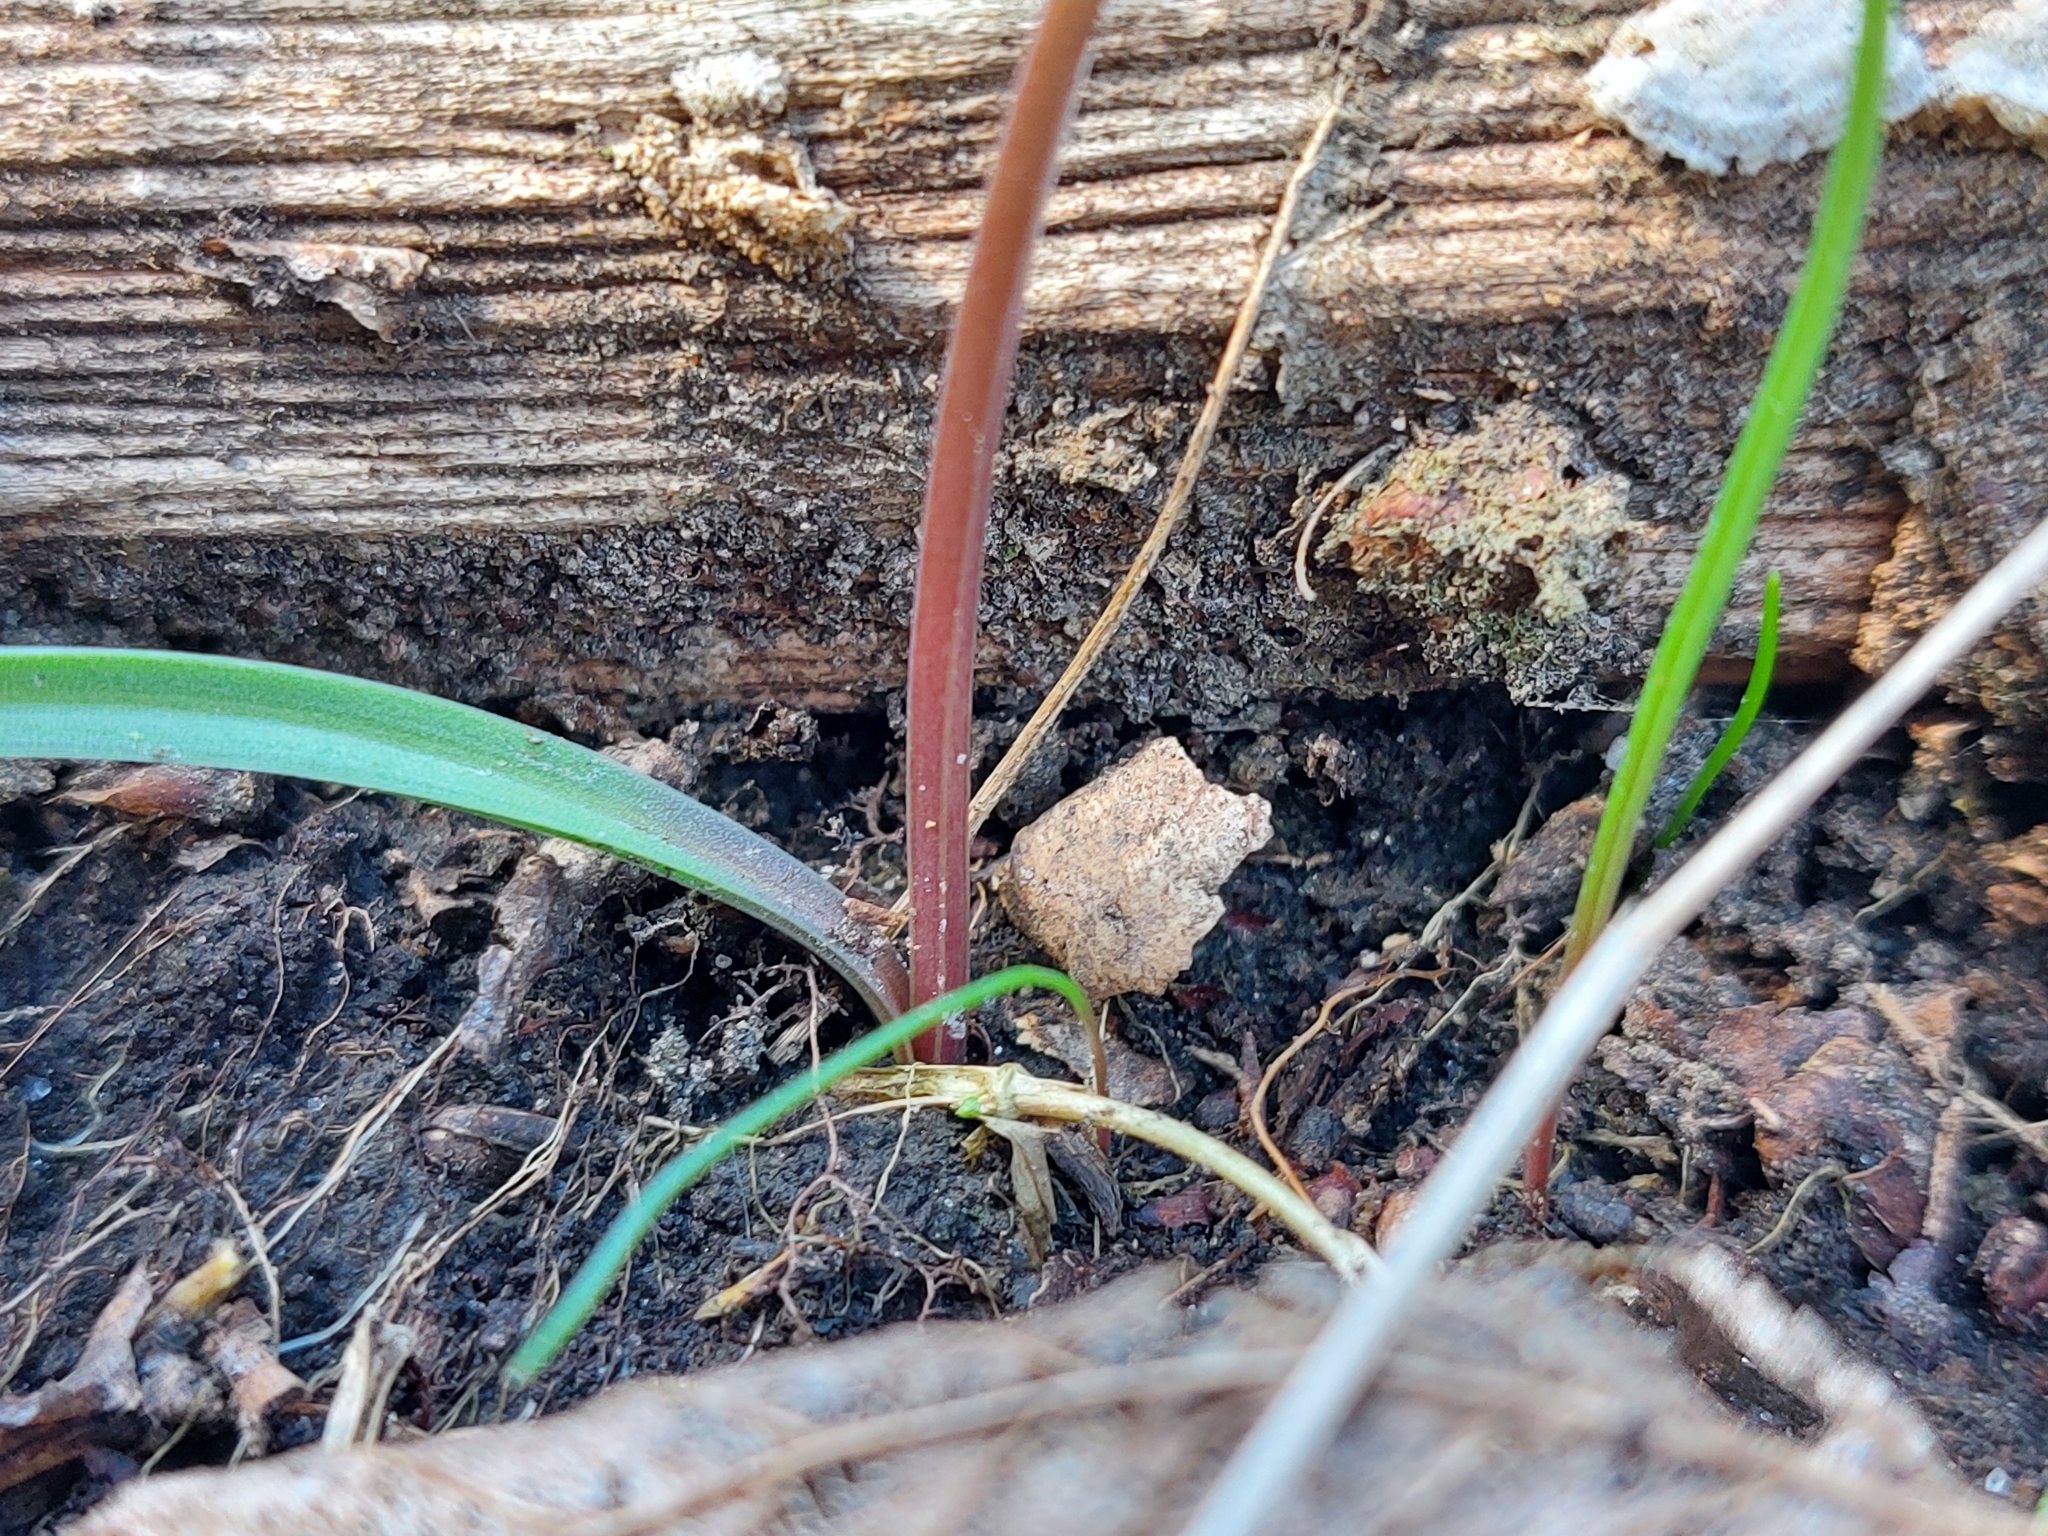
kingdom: Plantae
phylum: Tracheophyta
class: Liliopsida
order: Liliales
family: Liliaceae
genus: Gagea
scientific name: Gagea fragifera
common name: Lily
